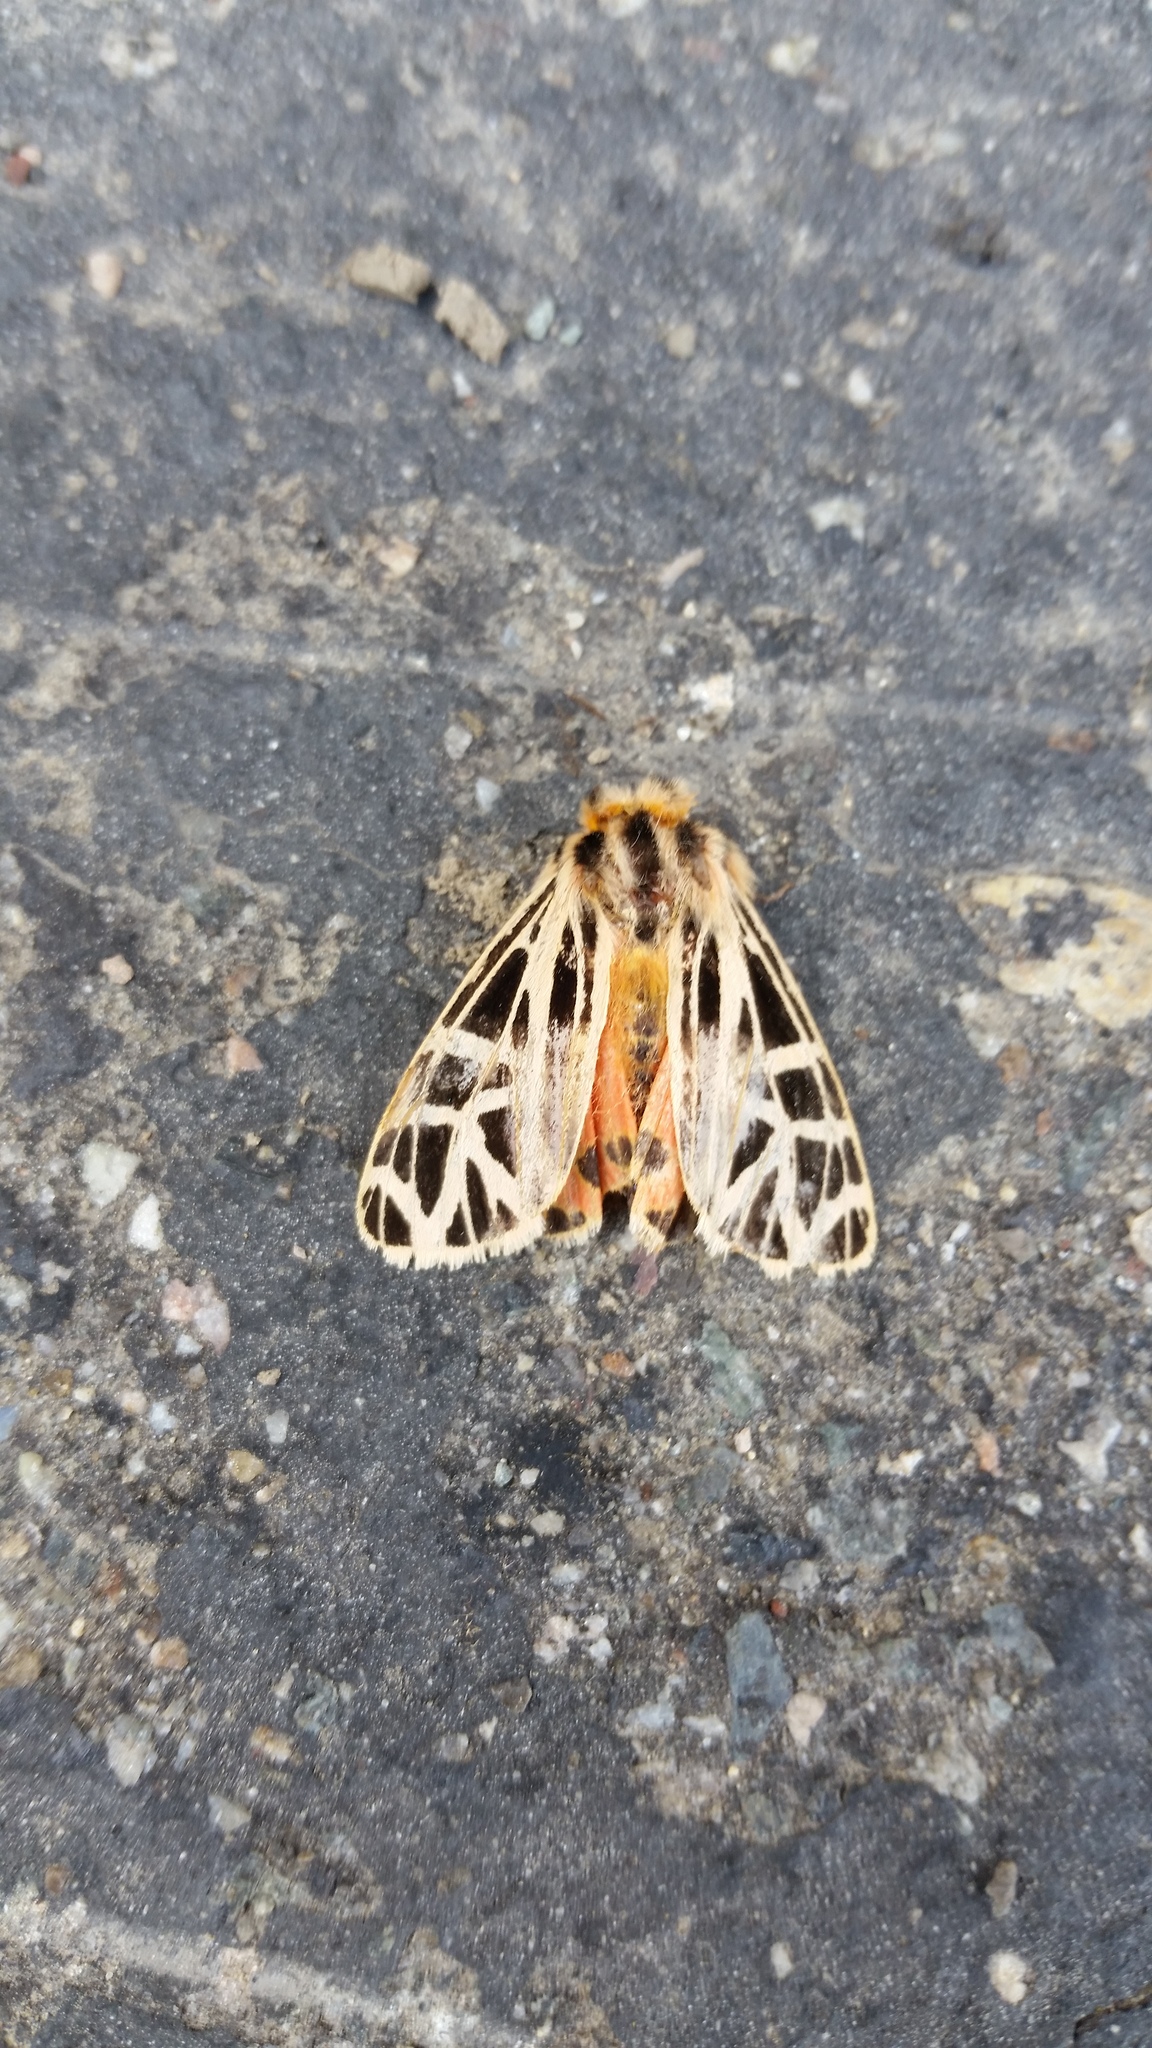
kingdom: Animalia
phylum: Arthropoda
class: Insecta
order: Lepidoptera
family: Erebidae
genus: Grammia
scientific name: Grammia parthenice
